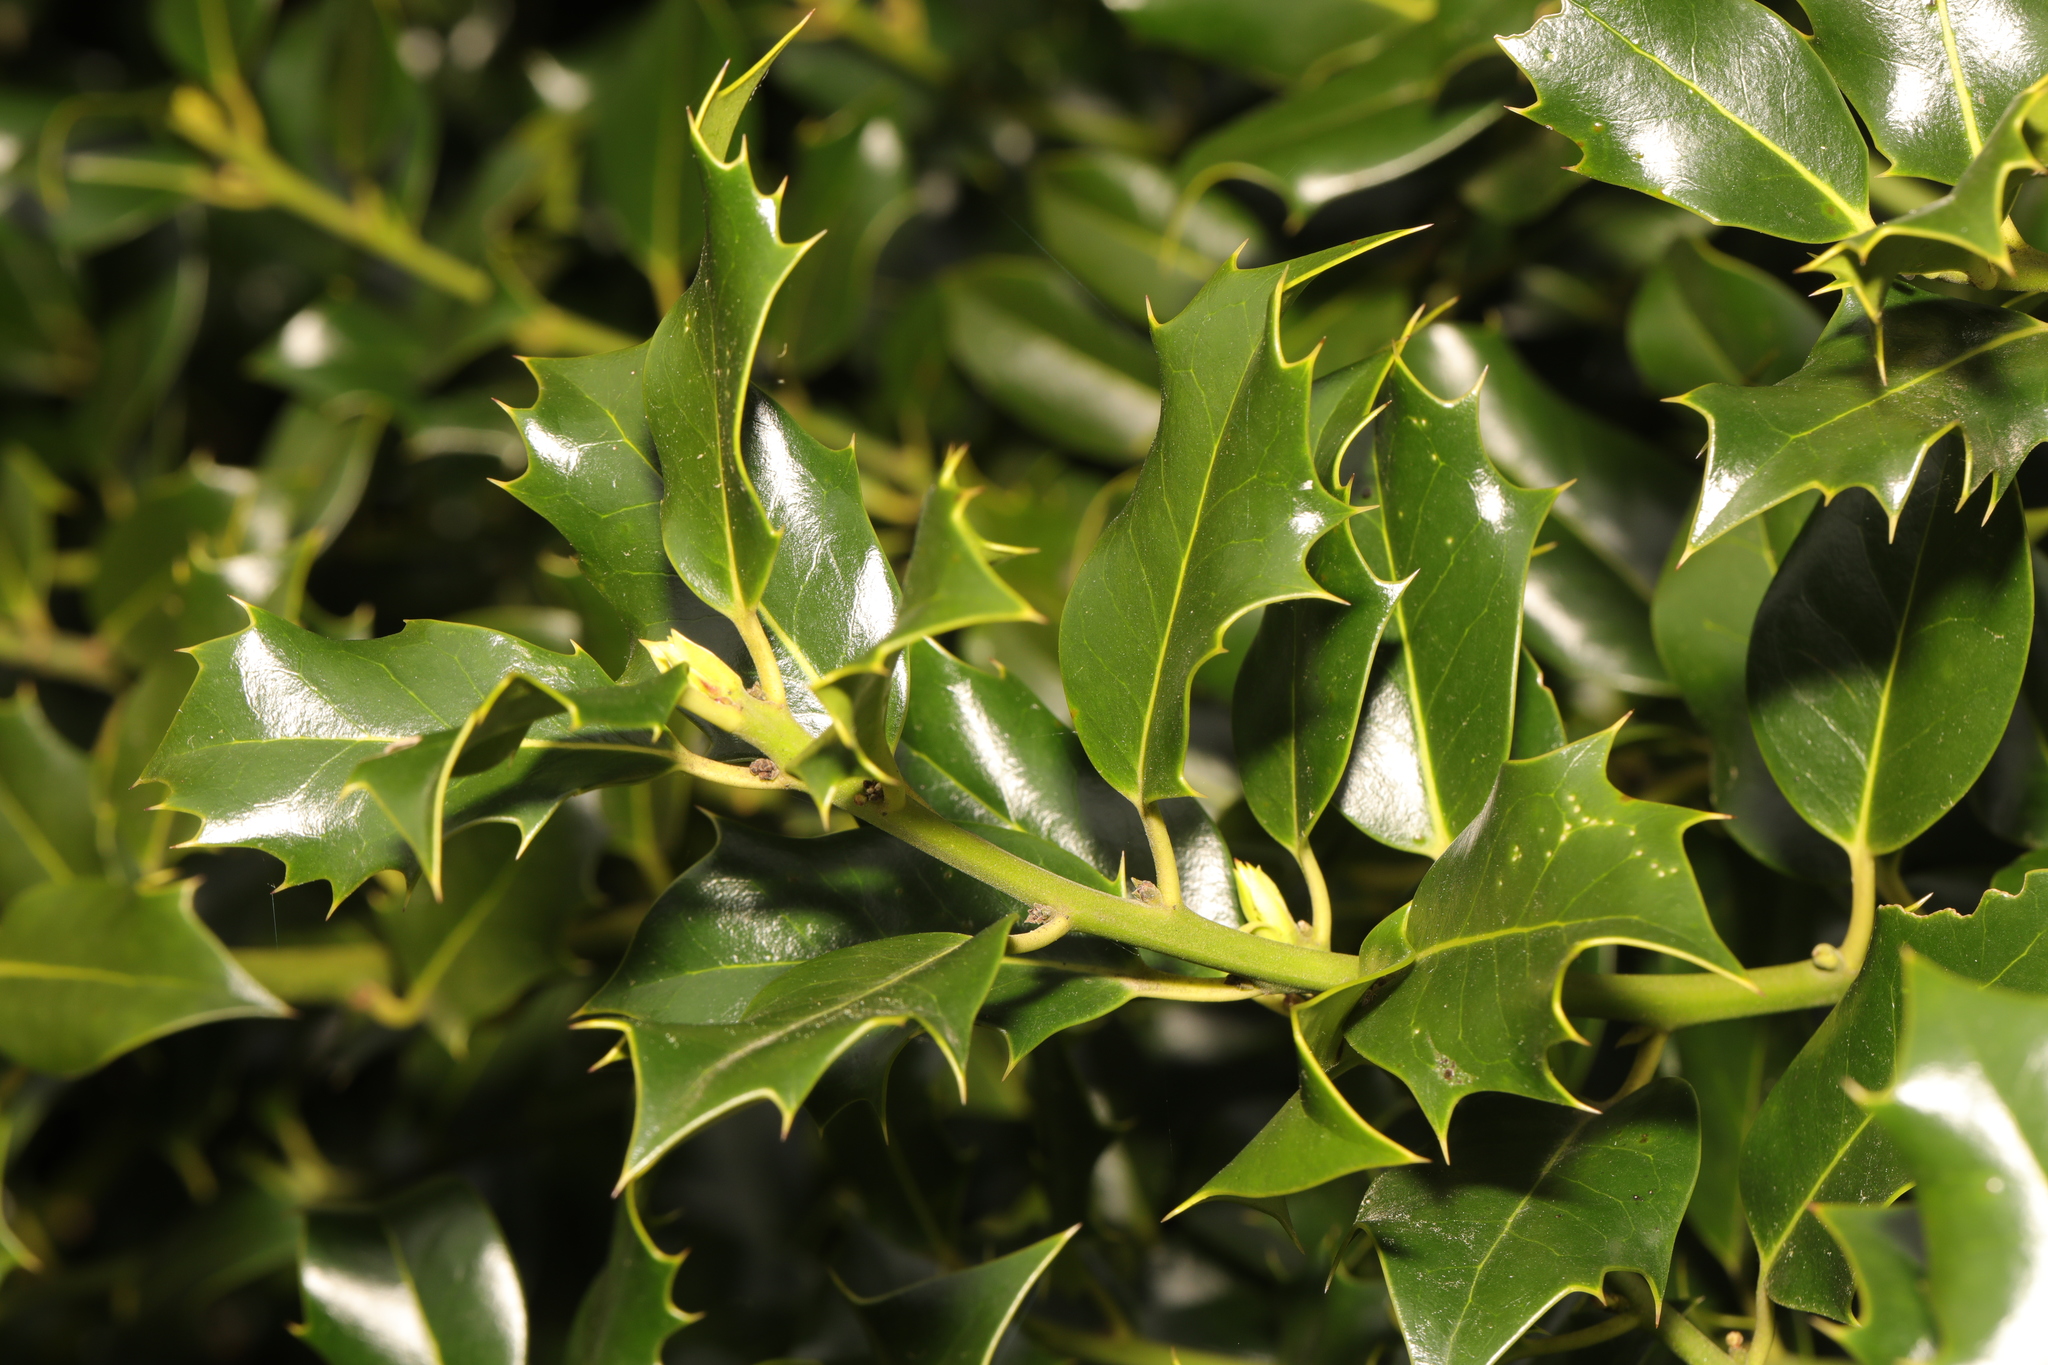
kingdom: Plantae
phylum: Tracheophyta
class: Magnoliopsida
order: Aquifoliales
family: Aquifoliaceae
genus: Ilex
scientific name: Ilex aquifolium
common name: English holly
